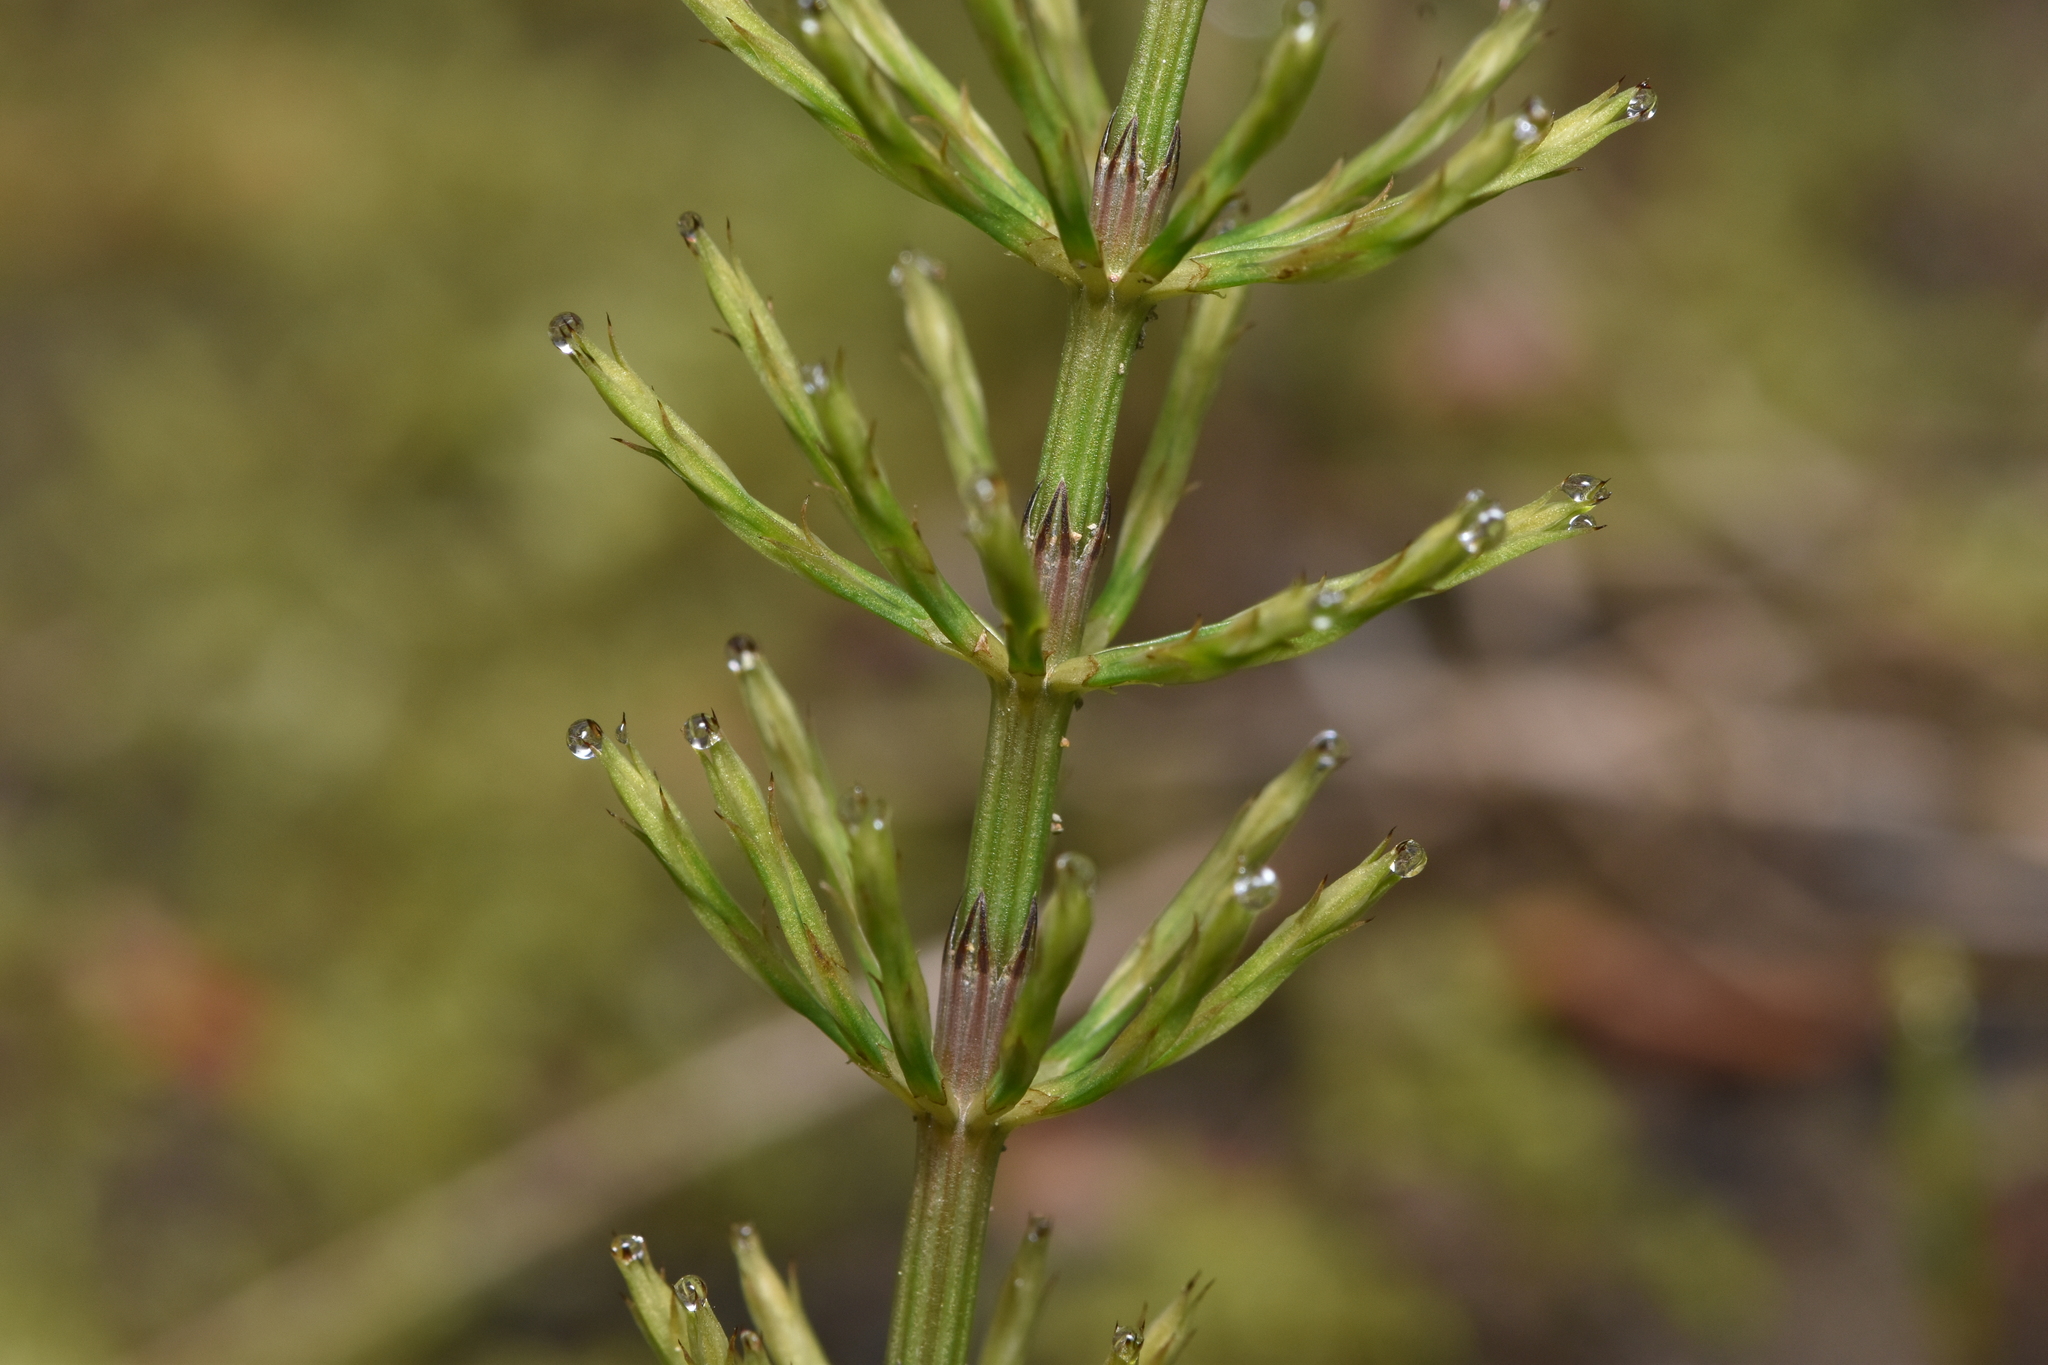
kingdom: Plantae
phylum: Tracheophyta
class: Polypodiopsida
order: Equisetales
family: Equisetaceae
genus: Equisetum
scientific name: Equisetum arvense
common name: Field horsetail
